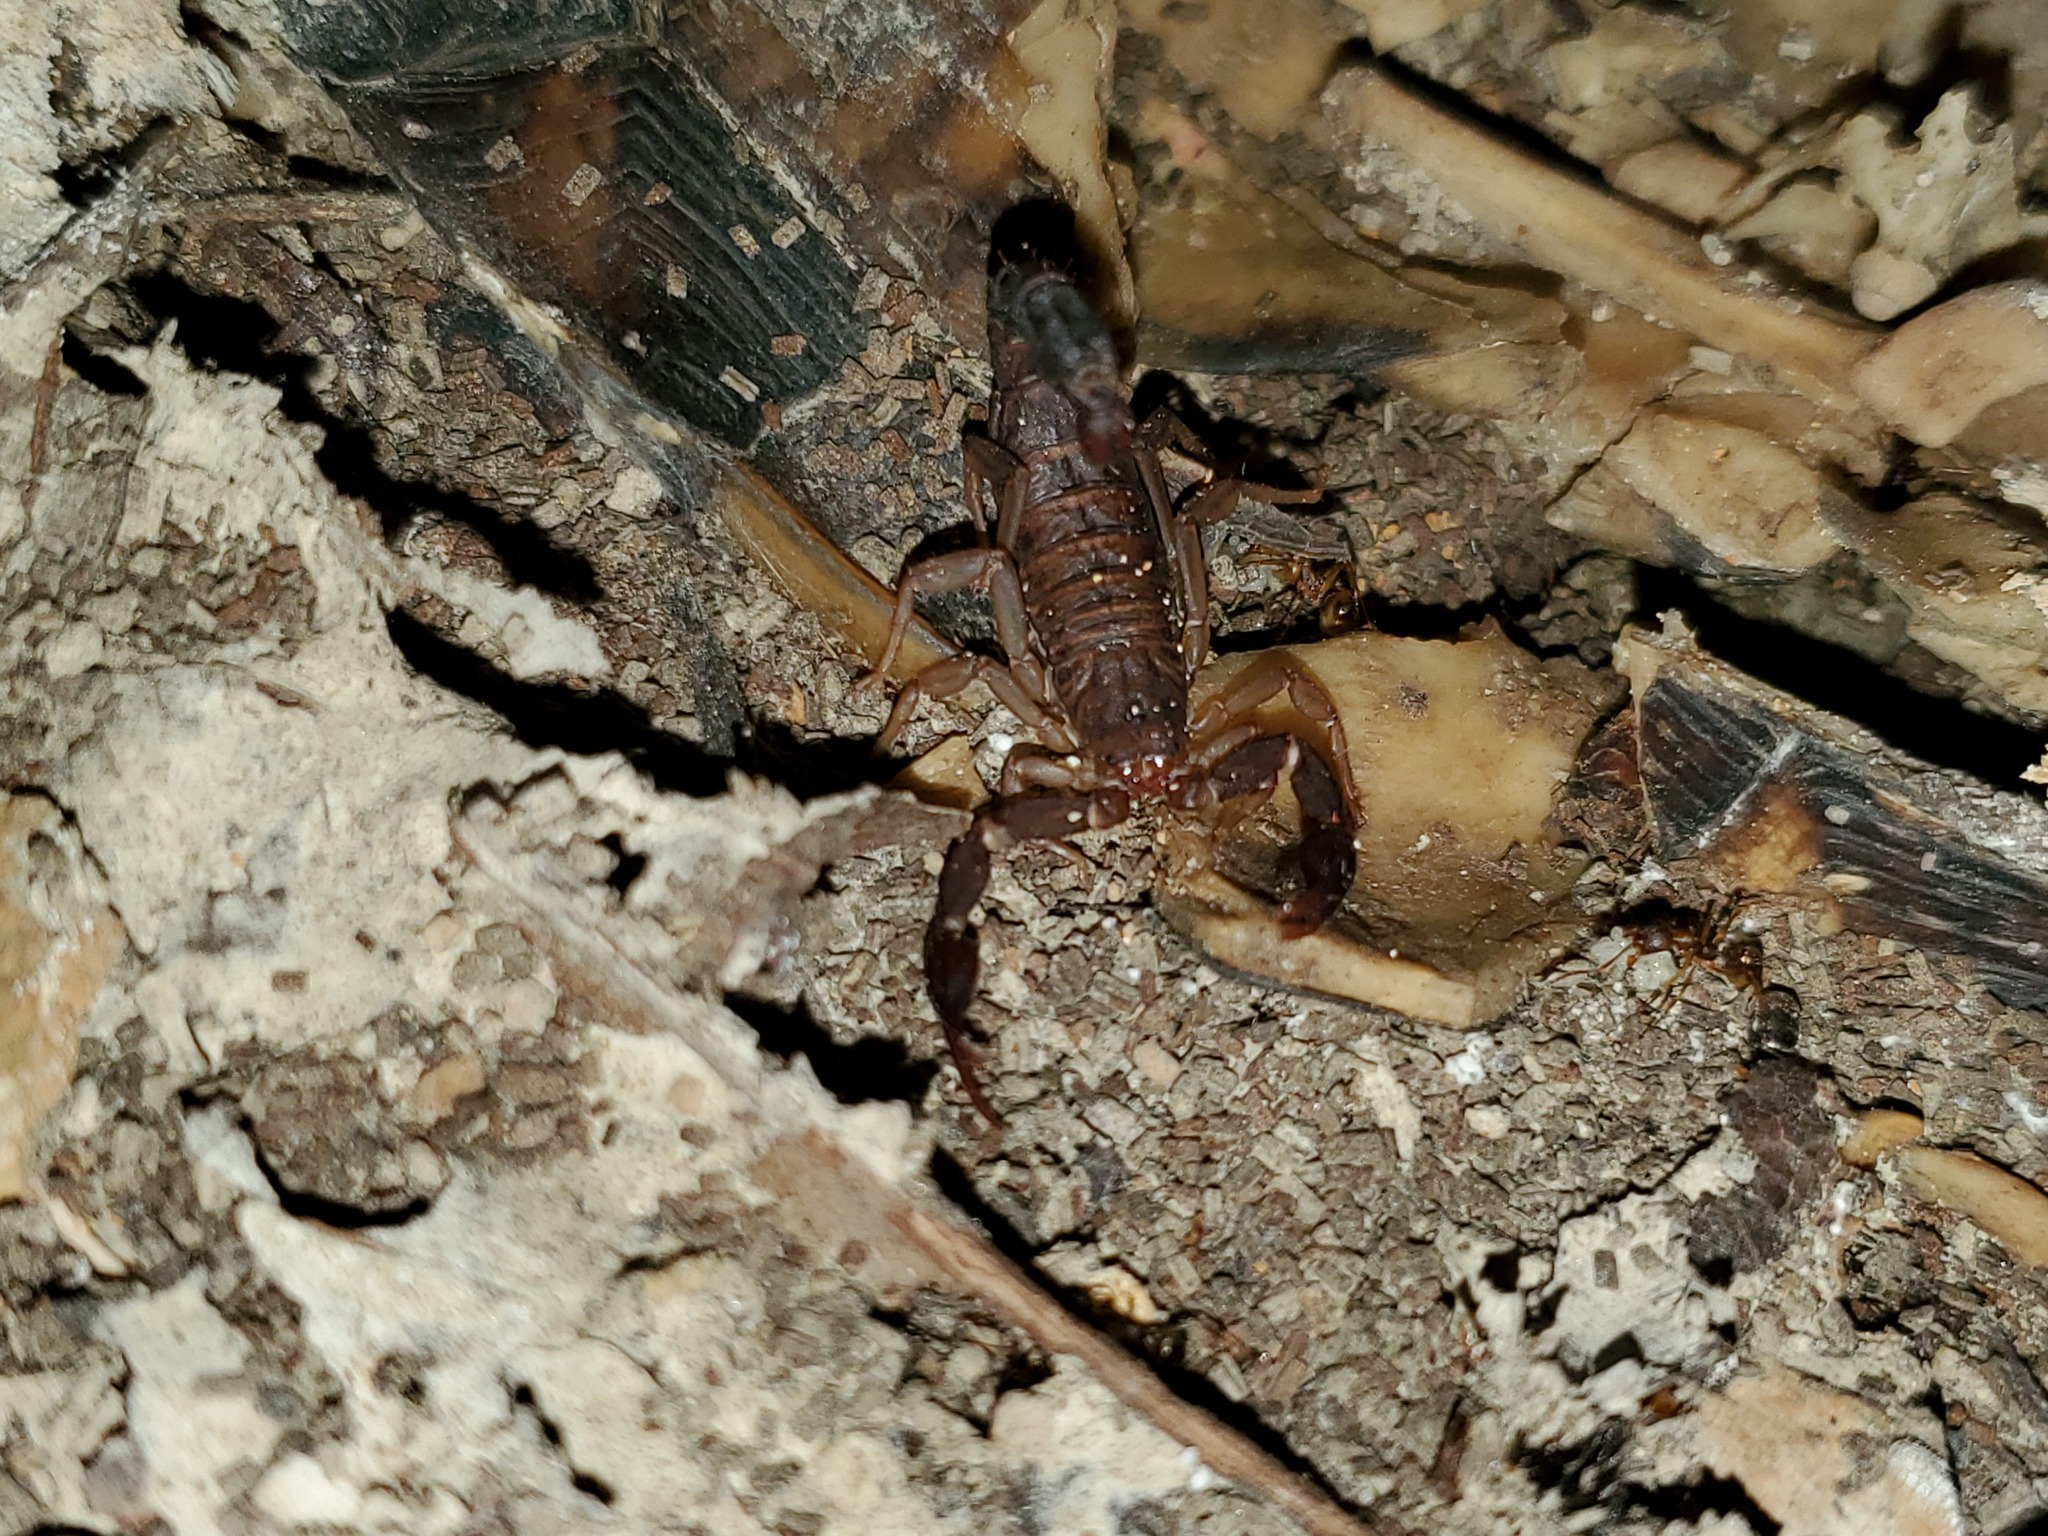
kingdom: Animalia
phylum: Arthropoda
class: Arachnida
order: Scorpiones
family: Vaejovidae
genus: Vaejovis
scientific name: Vaejovis carolinianus
